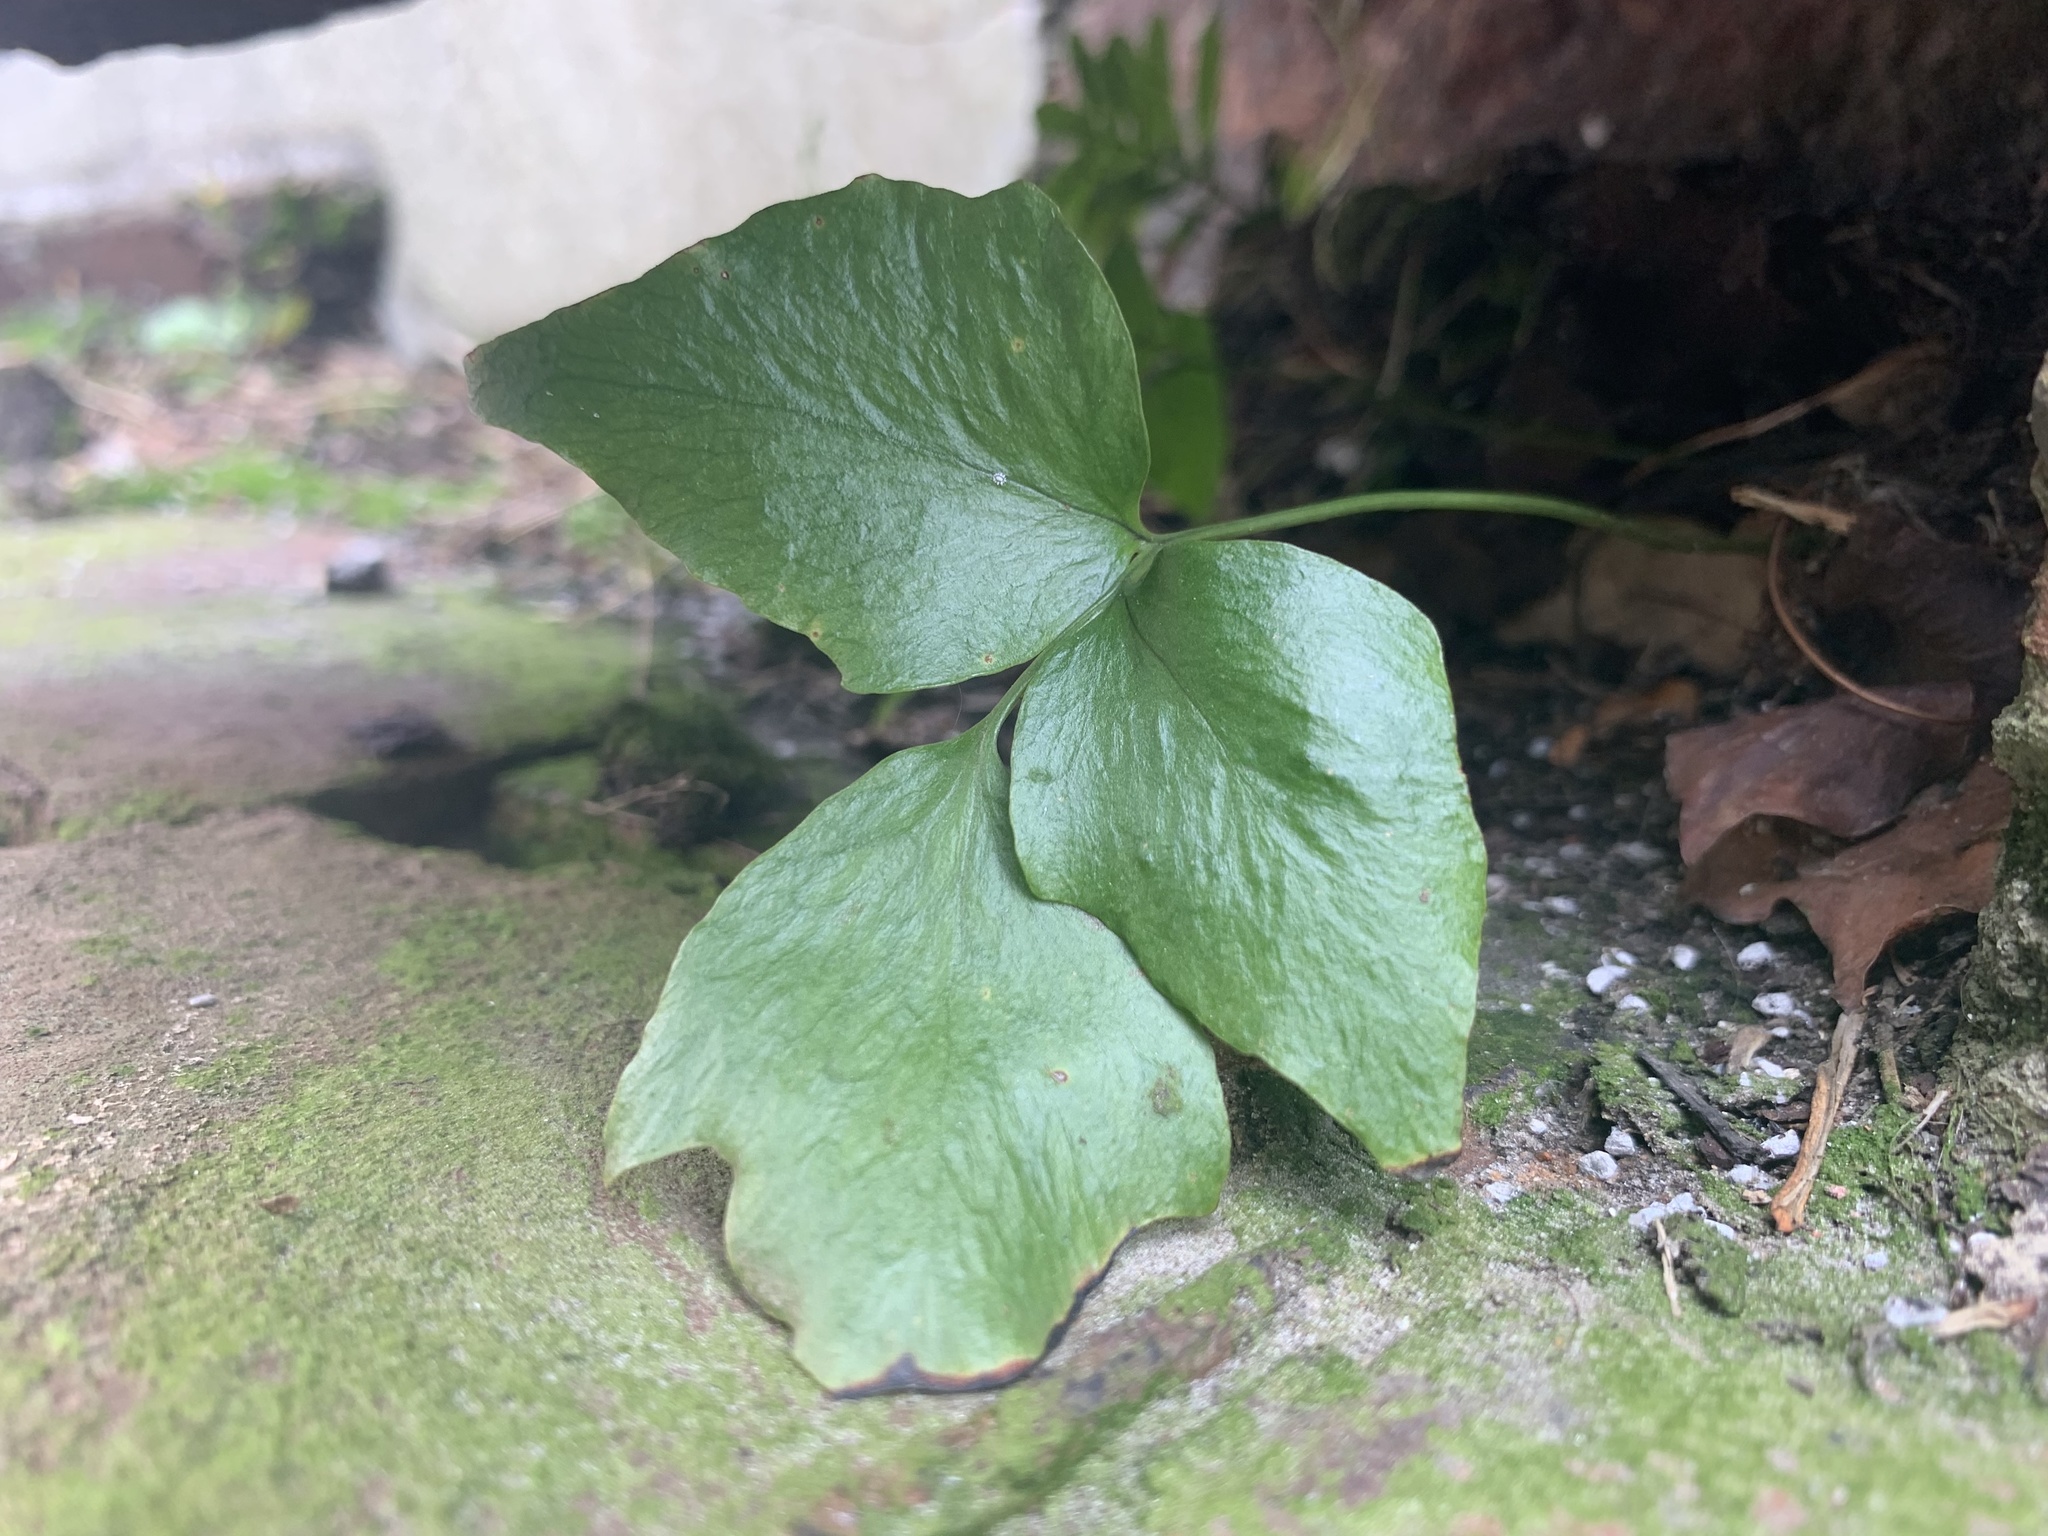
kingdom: Plantae
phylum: Tracheophyta
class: Polypodiopsida
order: Polypodiales
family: Dryopteridaceae
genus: Cyrtomium
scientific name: Cyrtomium falcatum
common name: House holly-fern
